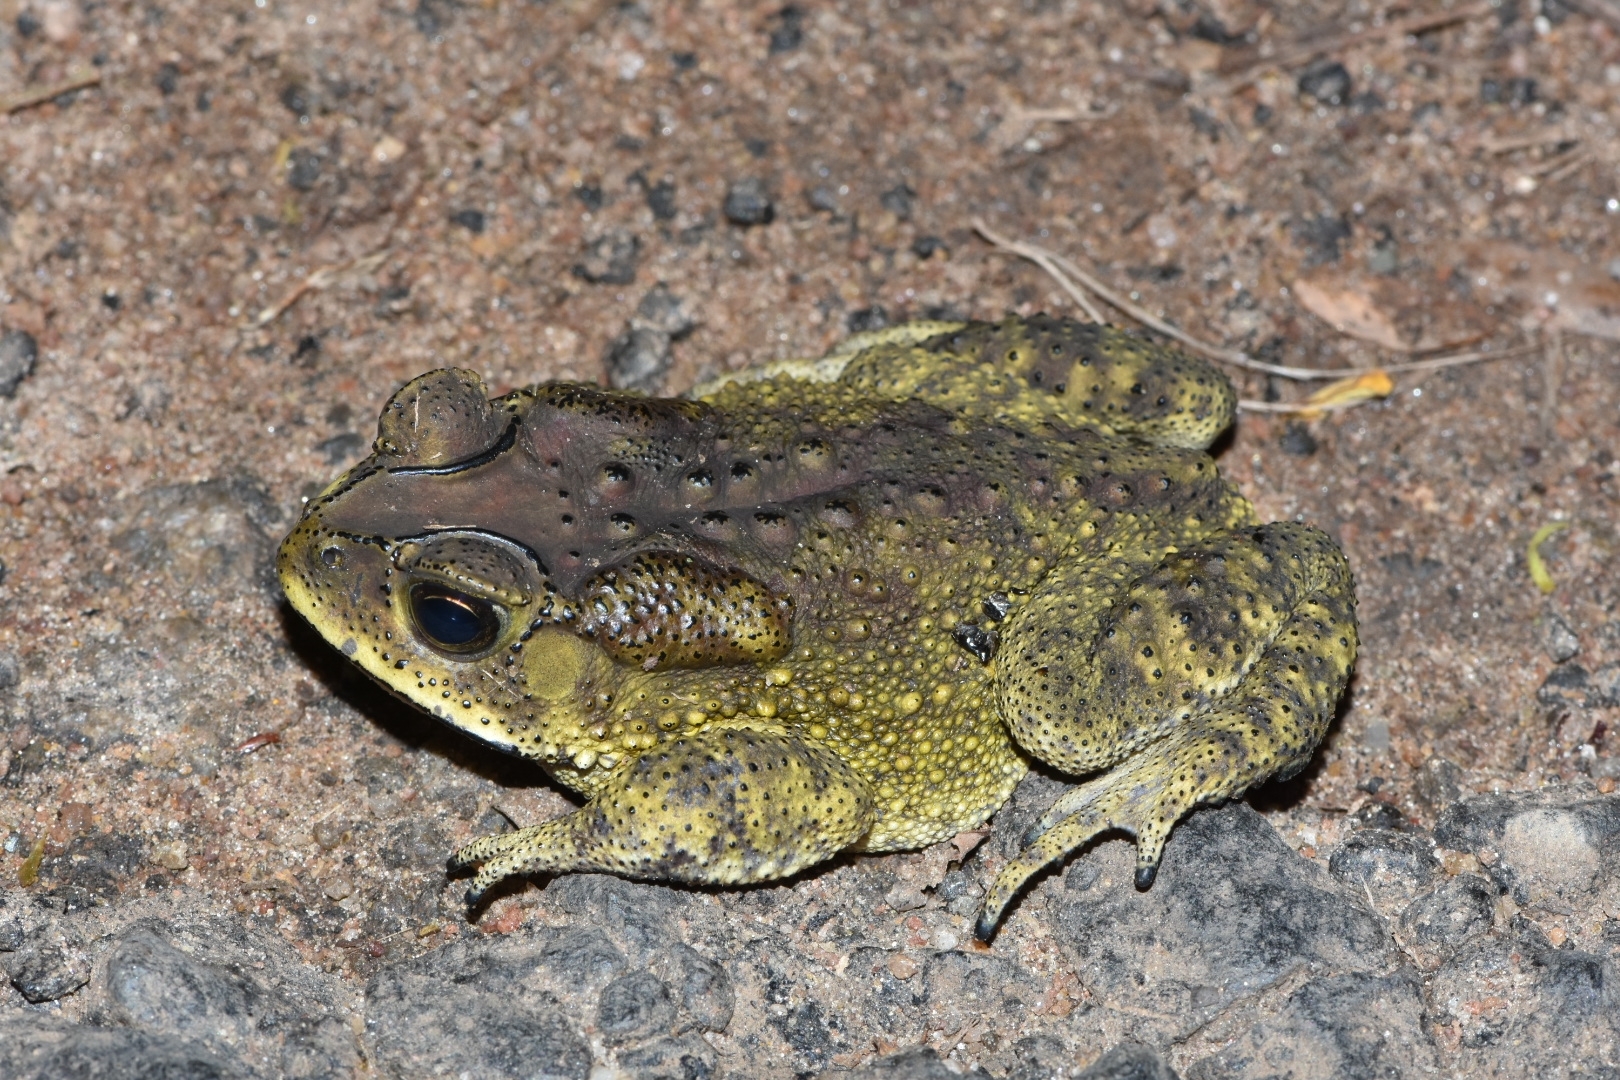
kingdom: Animalia
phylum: Chordata
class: Amphibia
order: Anura
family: Bufonidae
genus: Duttaphrynus
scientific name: Duttaphrynus melanostictus
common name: Common sunda toad
